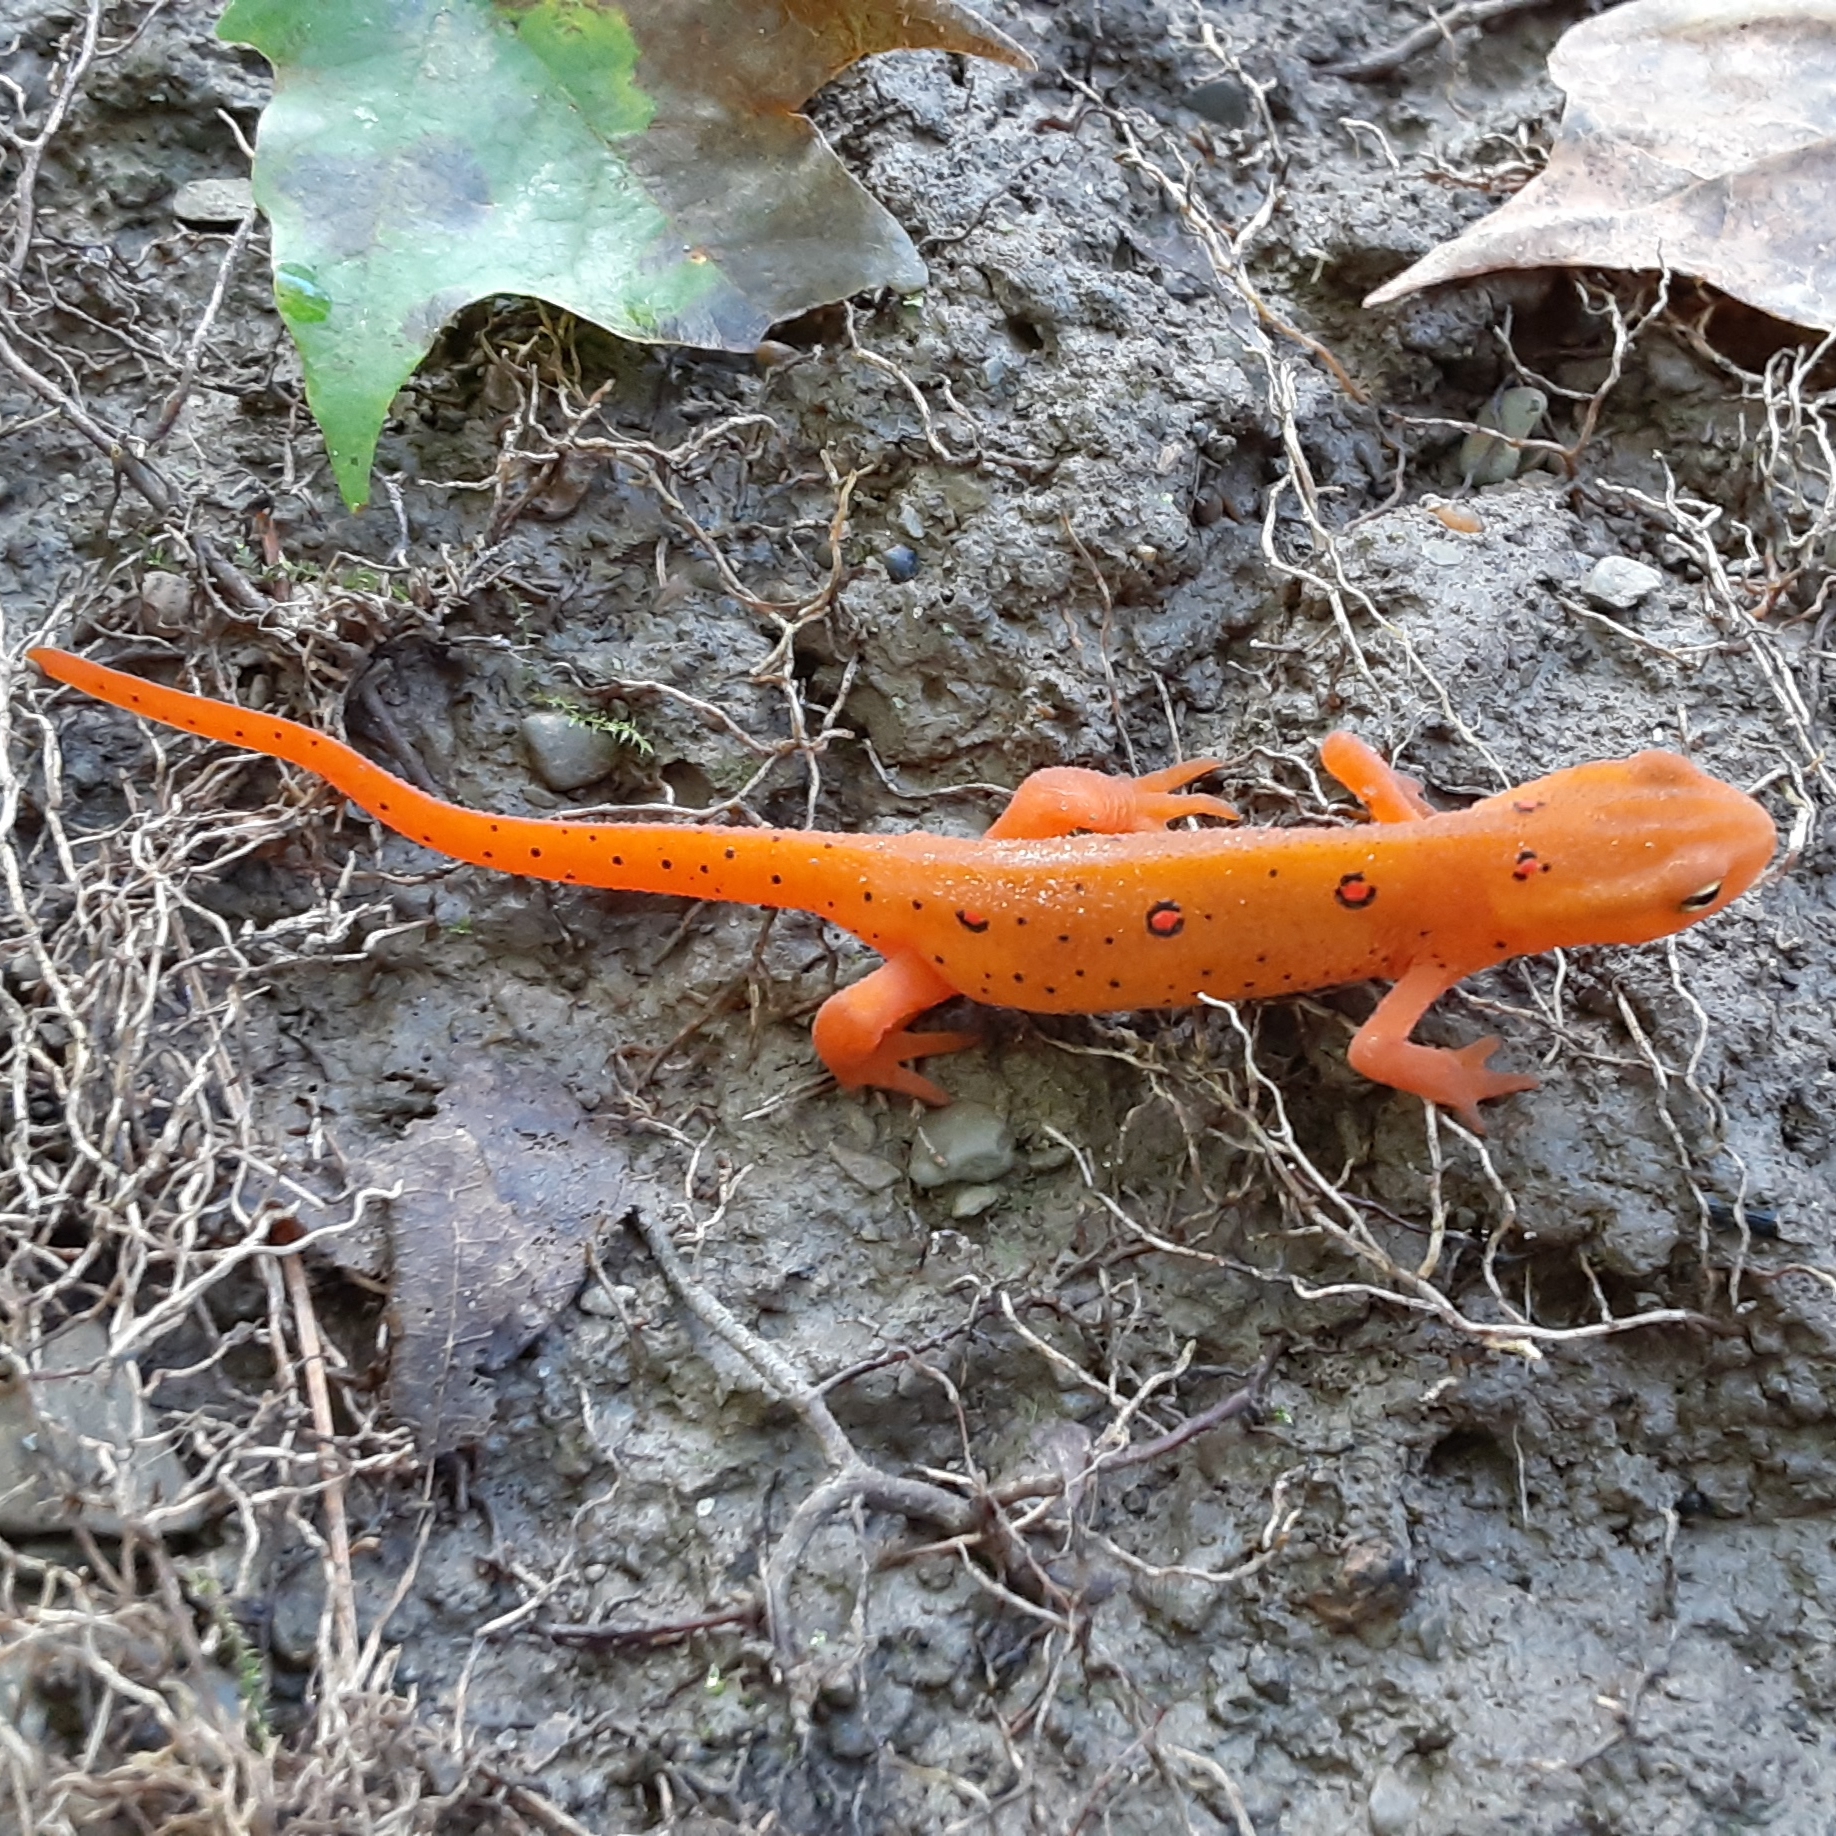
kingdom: Animalia
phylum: Chordata
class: Amphibia
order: Caudata
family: Salamandridae
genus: Notophthalmus
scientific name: Notophthalmus viridescens
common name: Eastern newt
